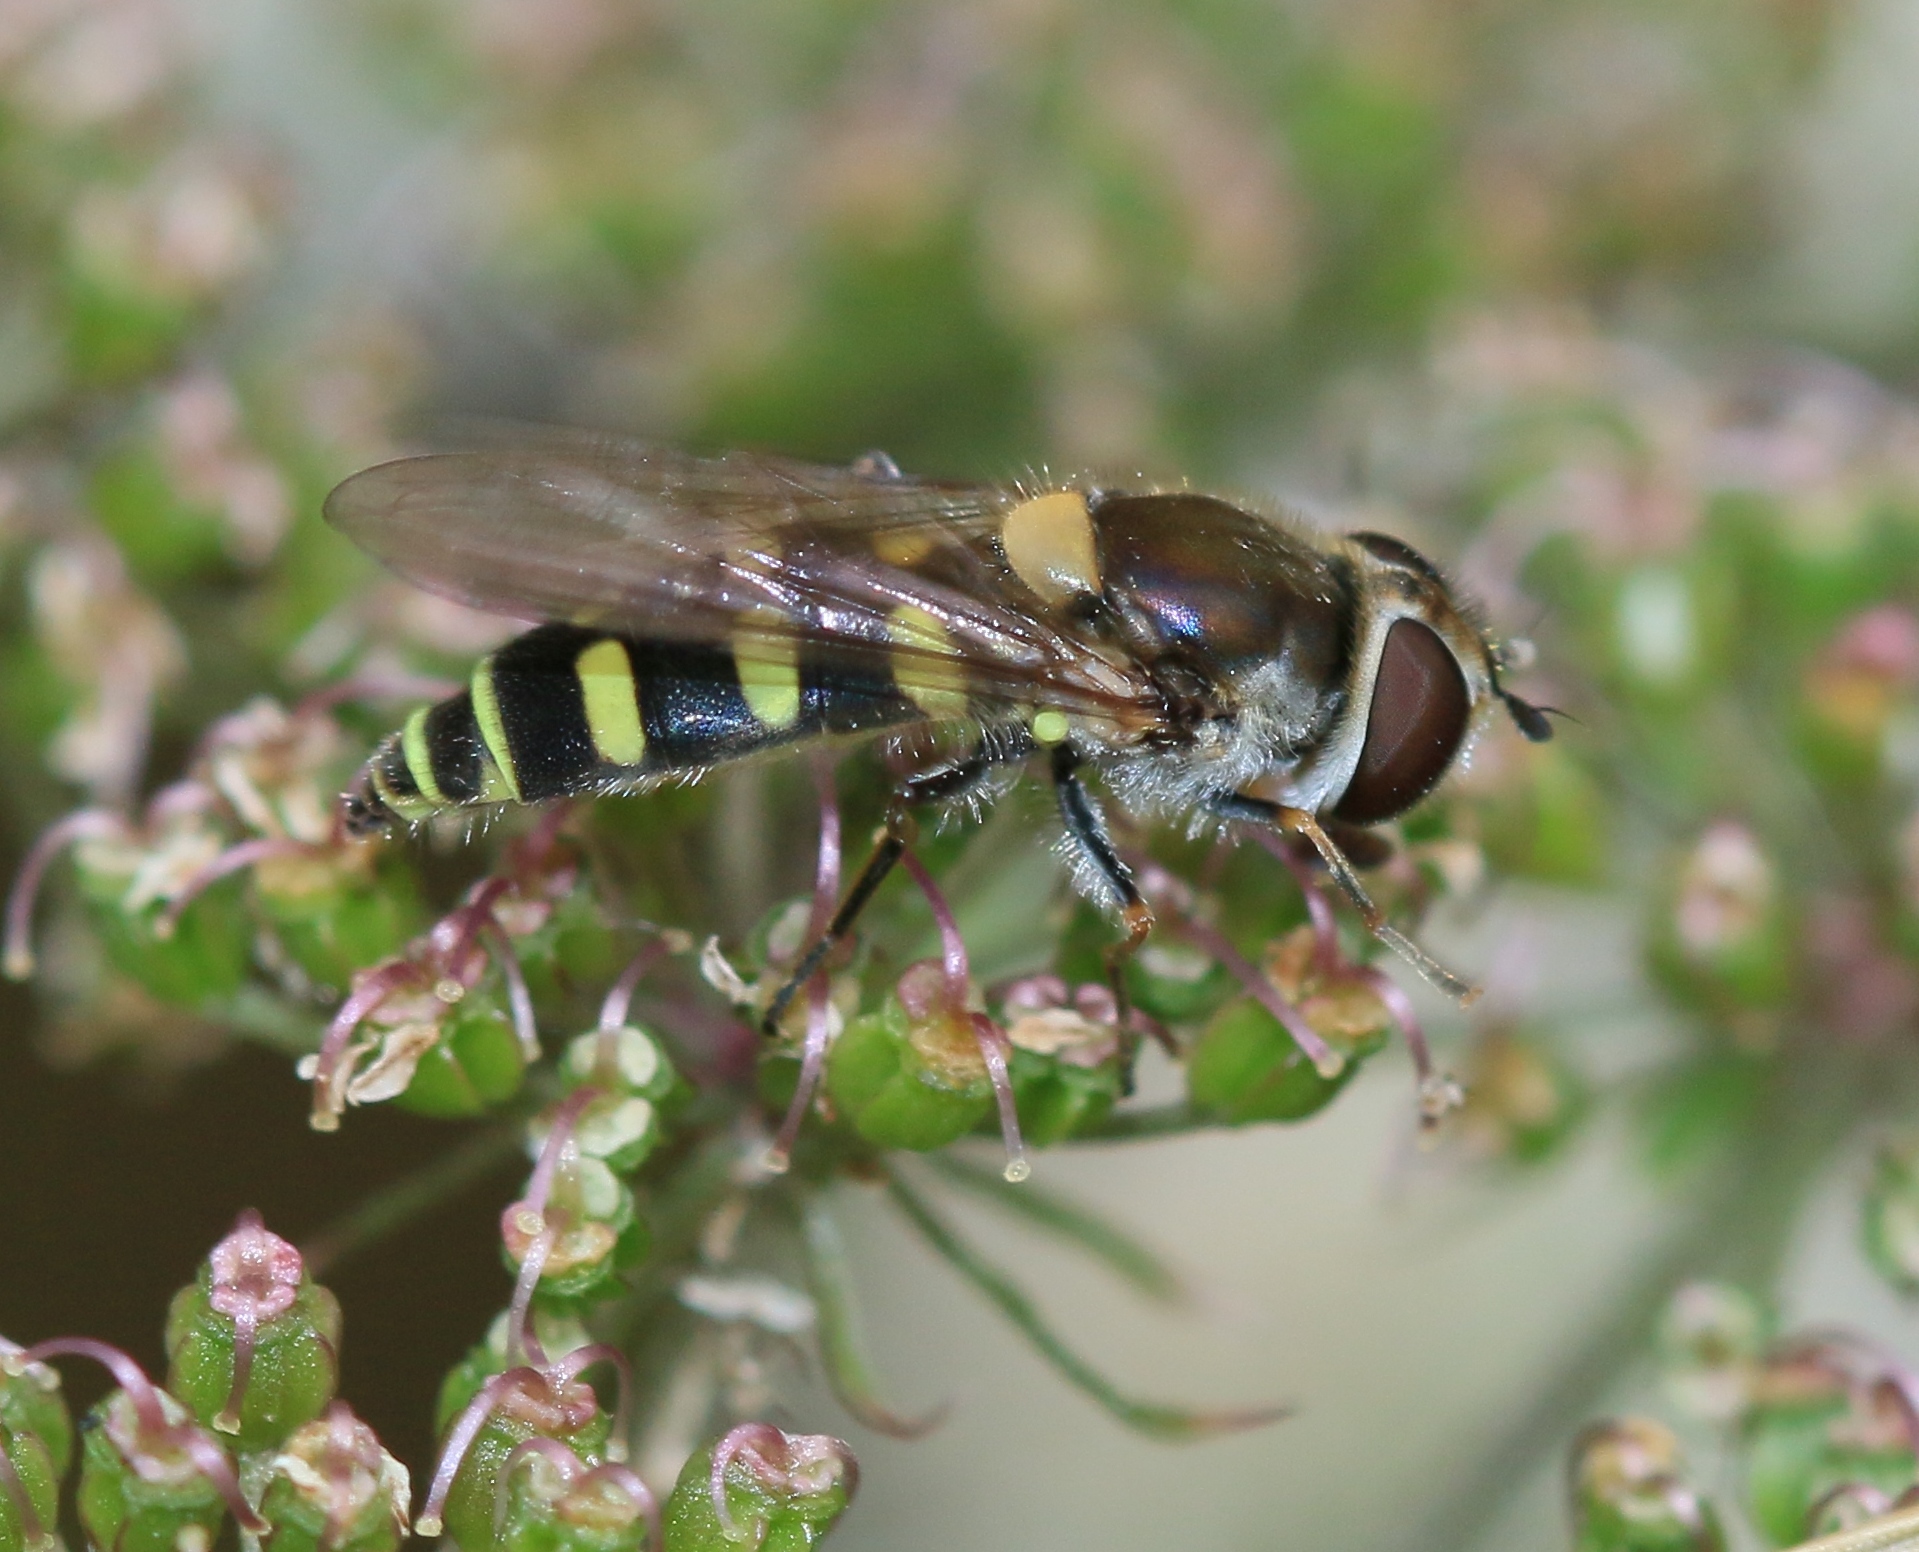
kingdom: Animalia
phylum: Arthropoda
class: Insecta
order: Diptera
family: Syrphidae
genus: Melangyna
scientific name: Melangyna labiatarum
